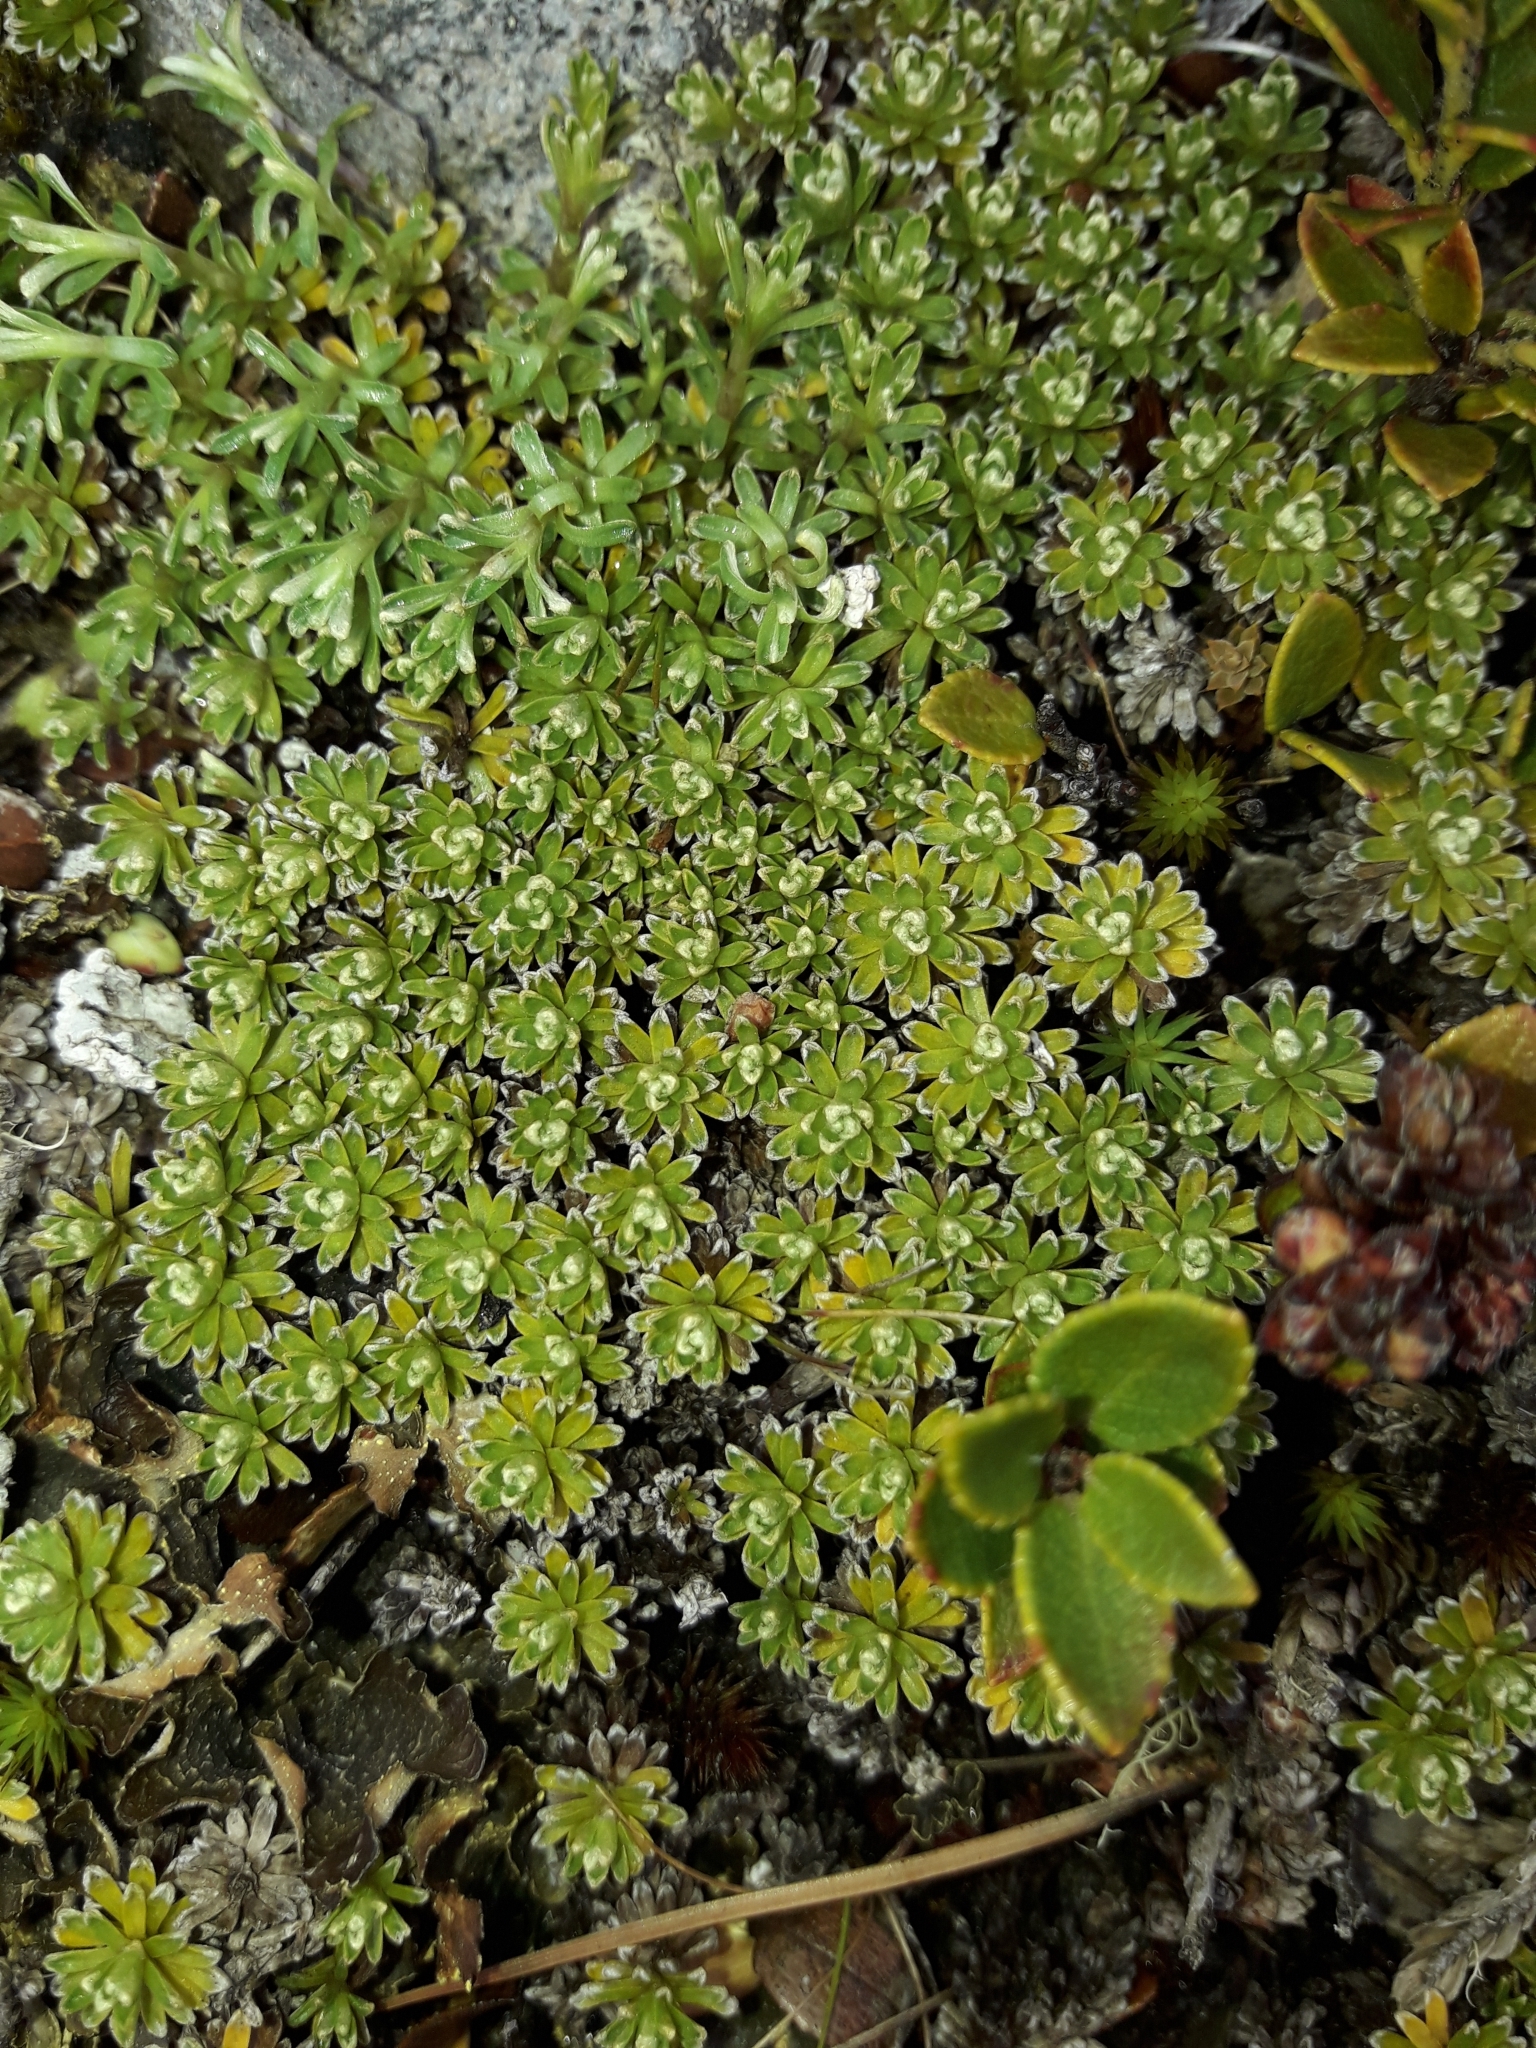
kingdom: Plantae
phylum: Tracheophyta
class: Magnoliopsida
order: Asterales
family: Asteraceae
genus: Raoulia
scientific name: Raoulia subsericea
